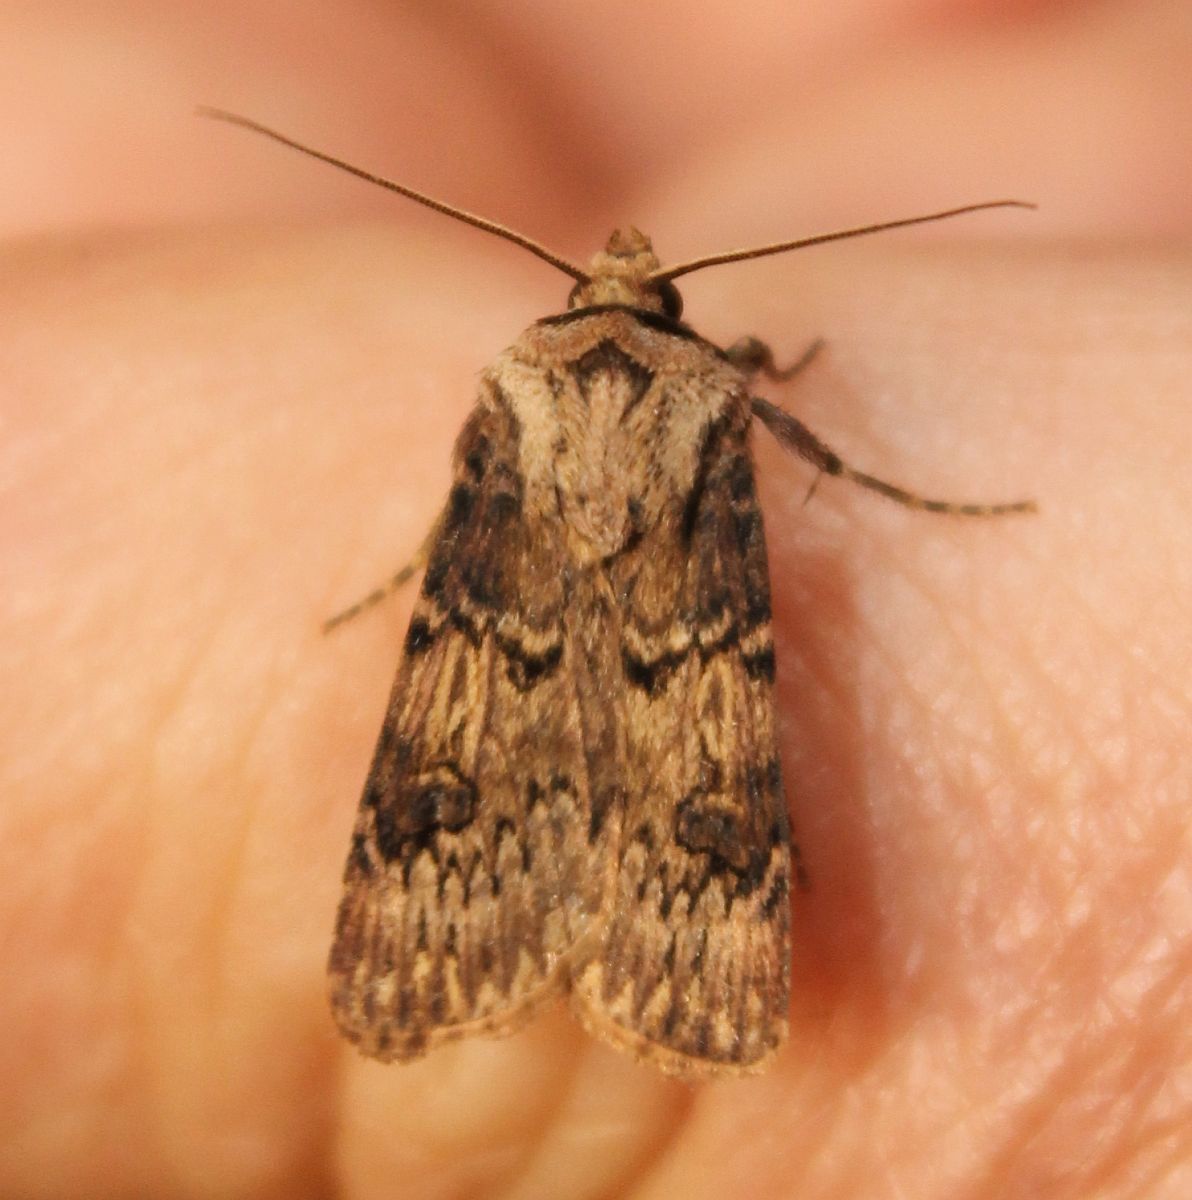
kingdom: Animalia
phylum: Arthropoda
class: Insecta
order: Lepidoptera
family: Noctuidae
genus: Agrotis
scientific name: Agrotis puta
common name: Shuttle-shaped dart
